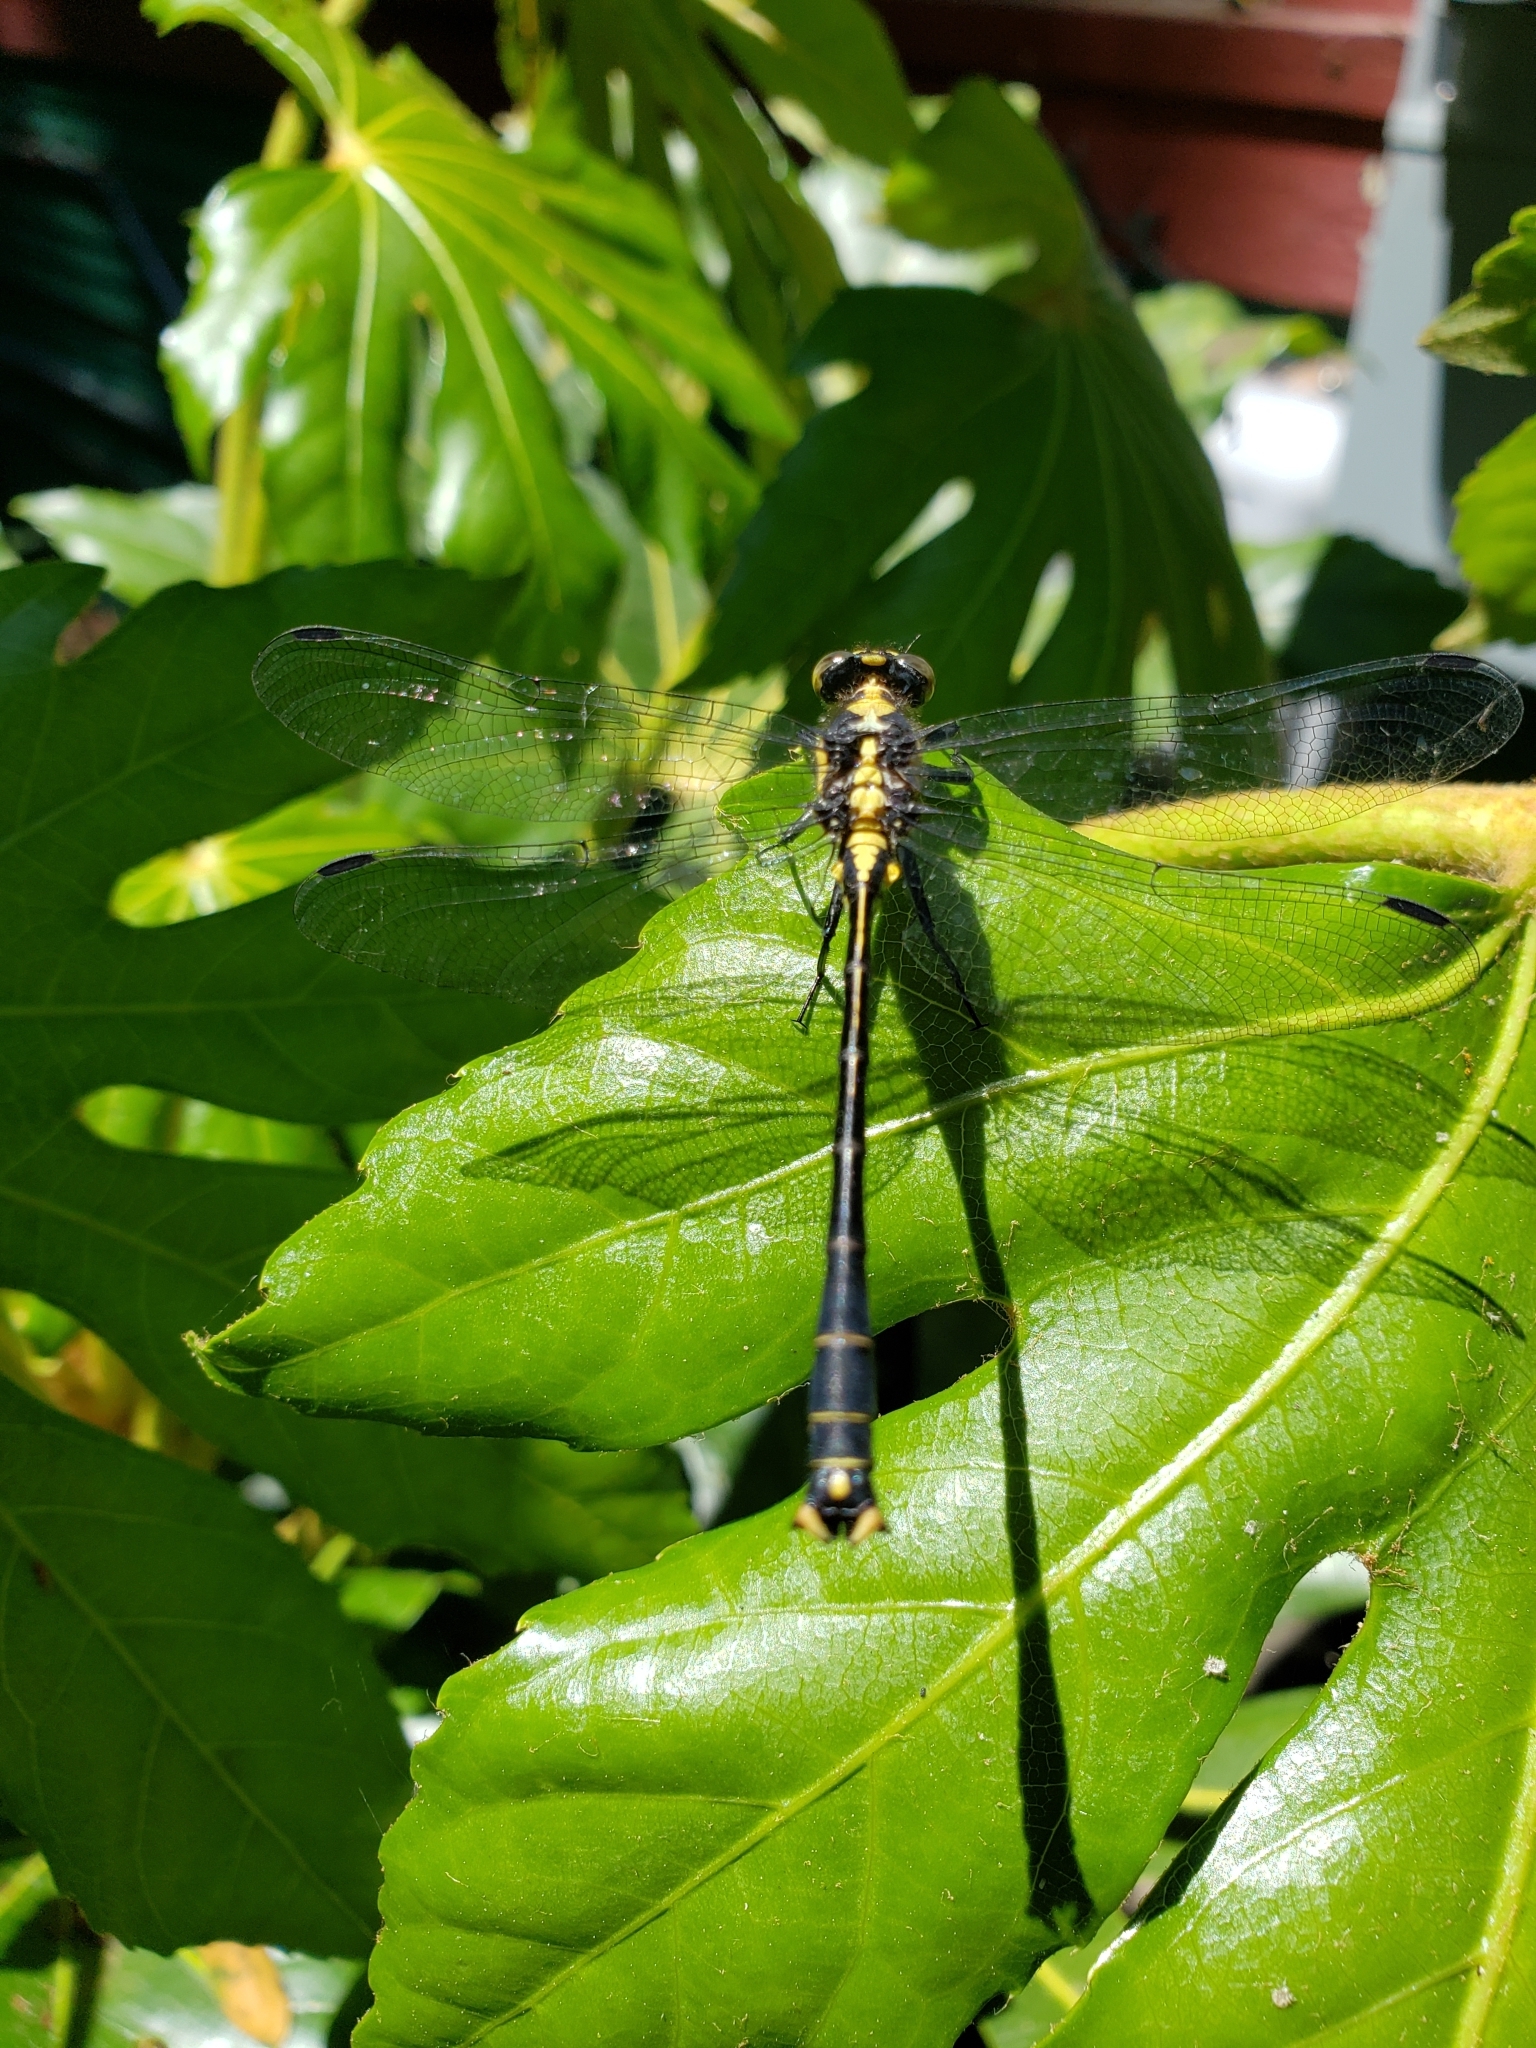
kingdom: Animalia
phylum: Arthropoda
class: Insecta
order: Odonata
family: Gomphidae
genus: Octogomphus
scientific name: Octogomphus specularis
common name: Grappletail
